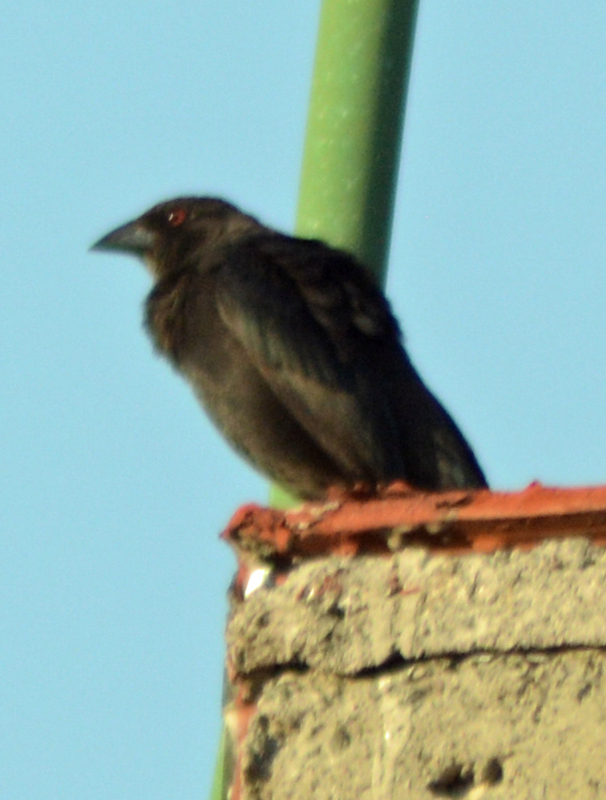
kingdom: Animalia
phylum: Chordata
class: Aves
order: Passeriformes
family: Icteridae
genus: Molothrus
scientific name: Molothrus aeneus
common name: Bronzed cowbird
